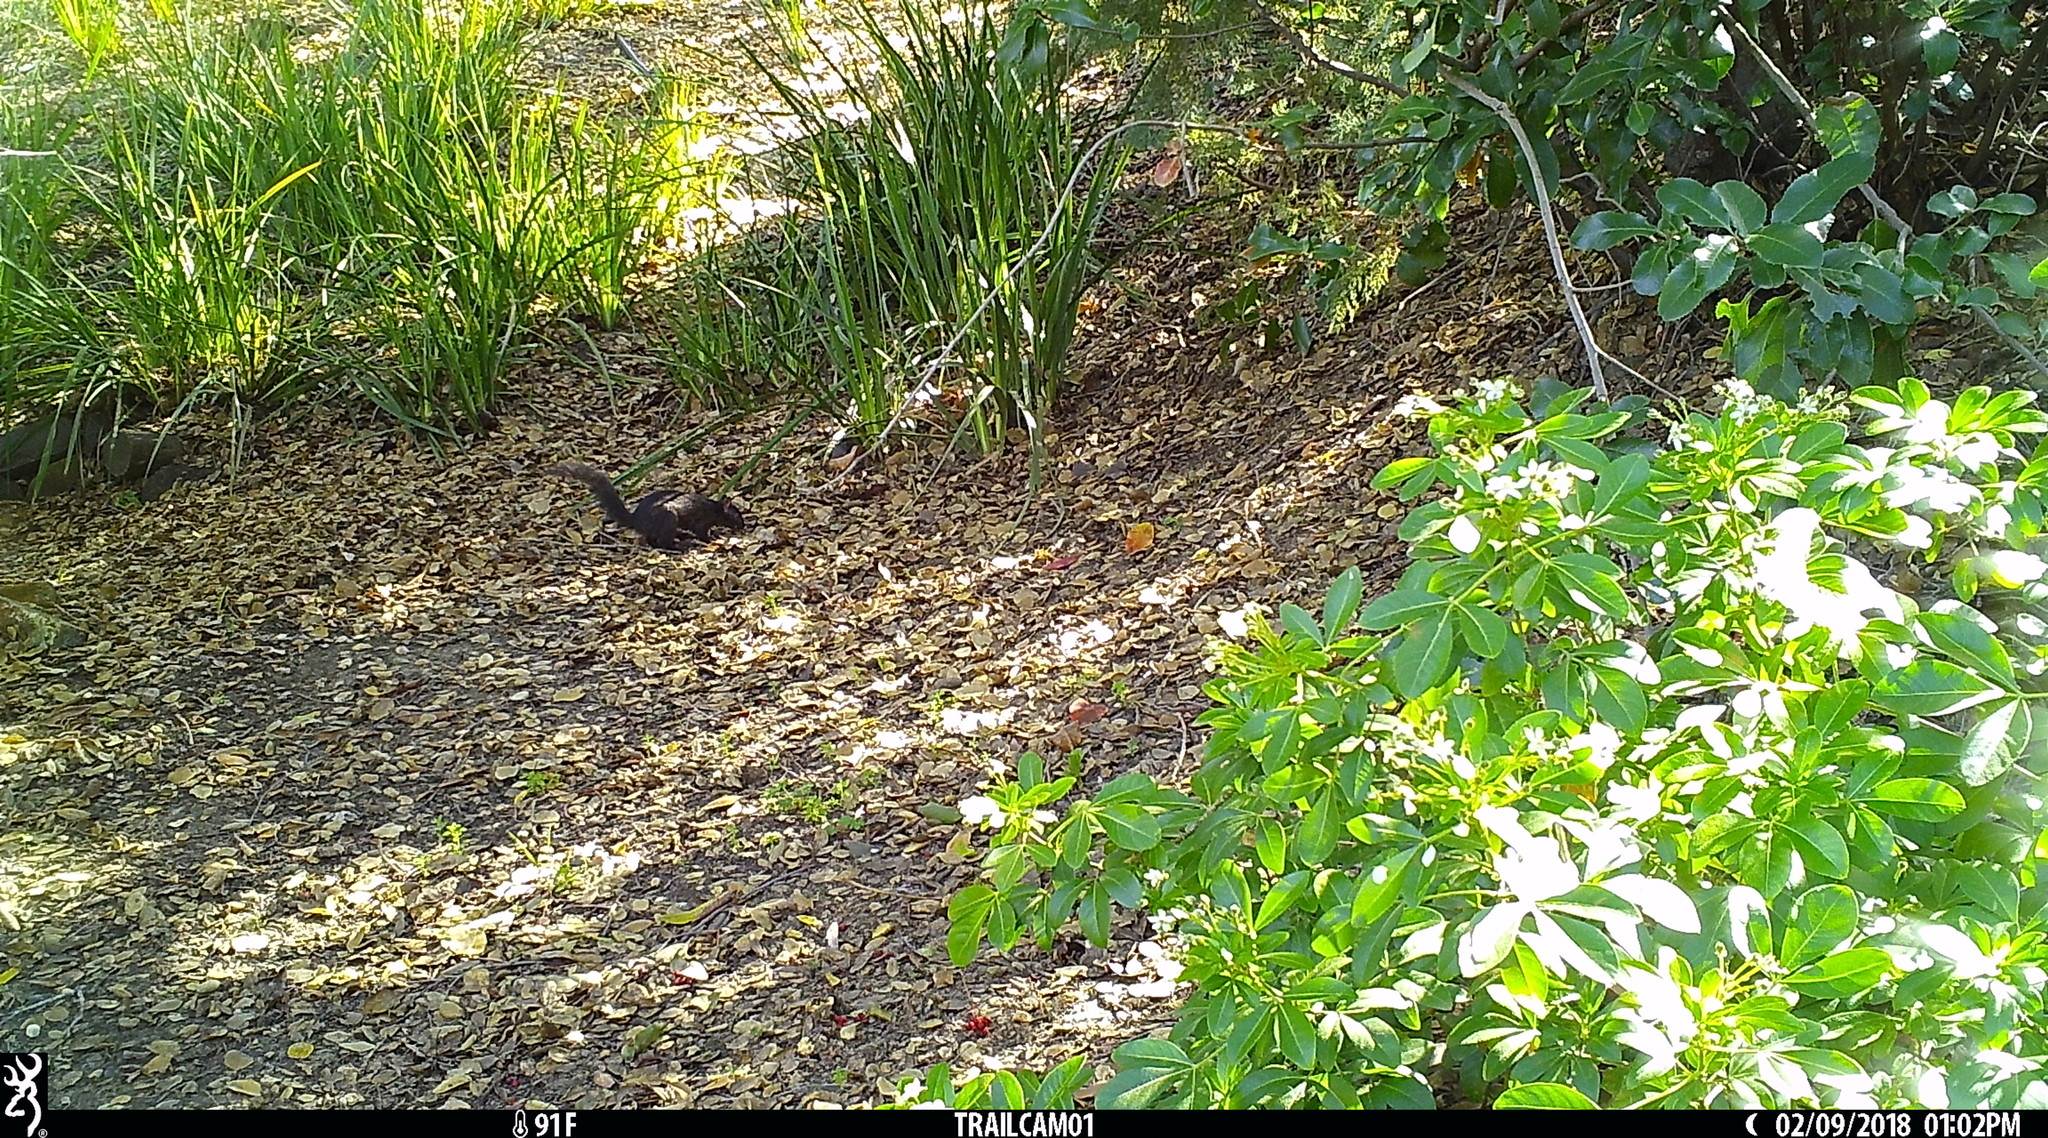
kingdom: Animalia
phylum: Chordata
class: Mammalia
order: Rodentia
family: Sciuridae
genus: Sciurus
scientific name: Sciurus carolinensis
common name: Eastern gray squirrel
